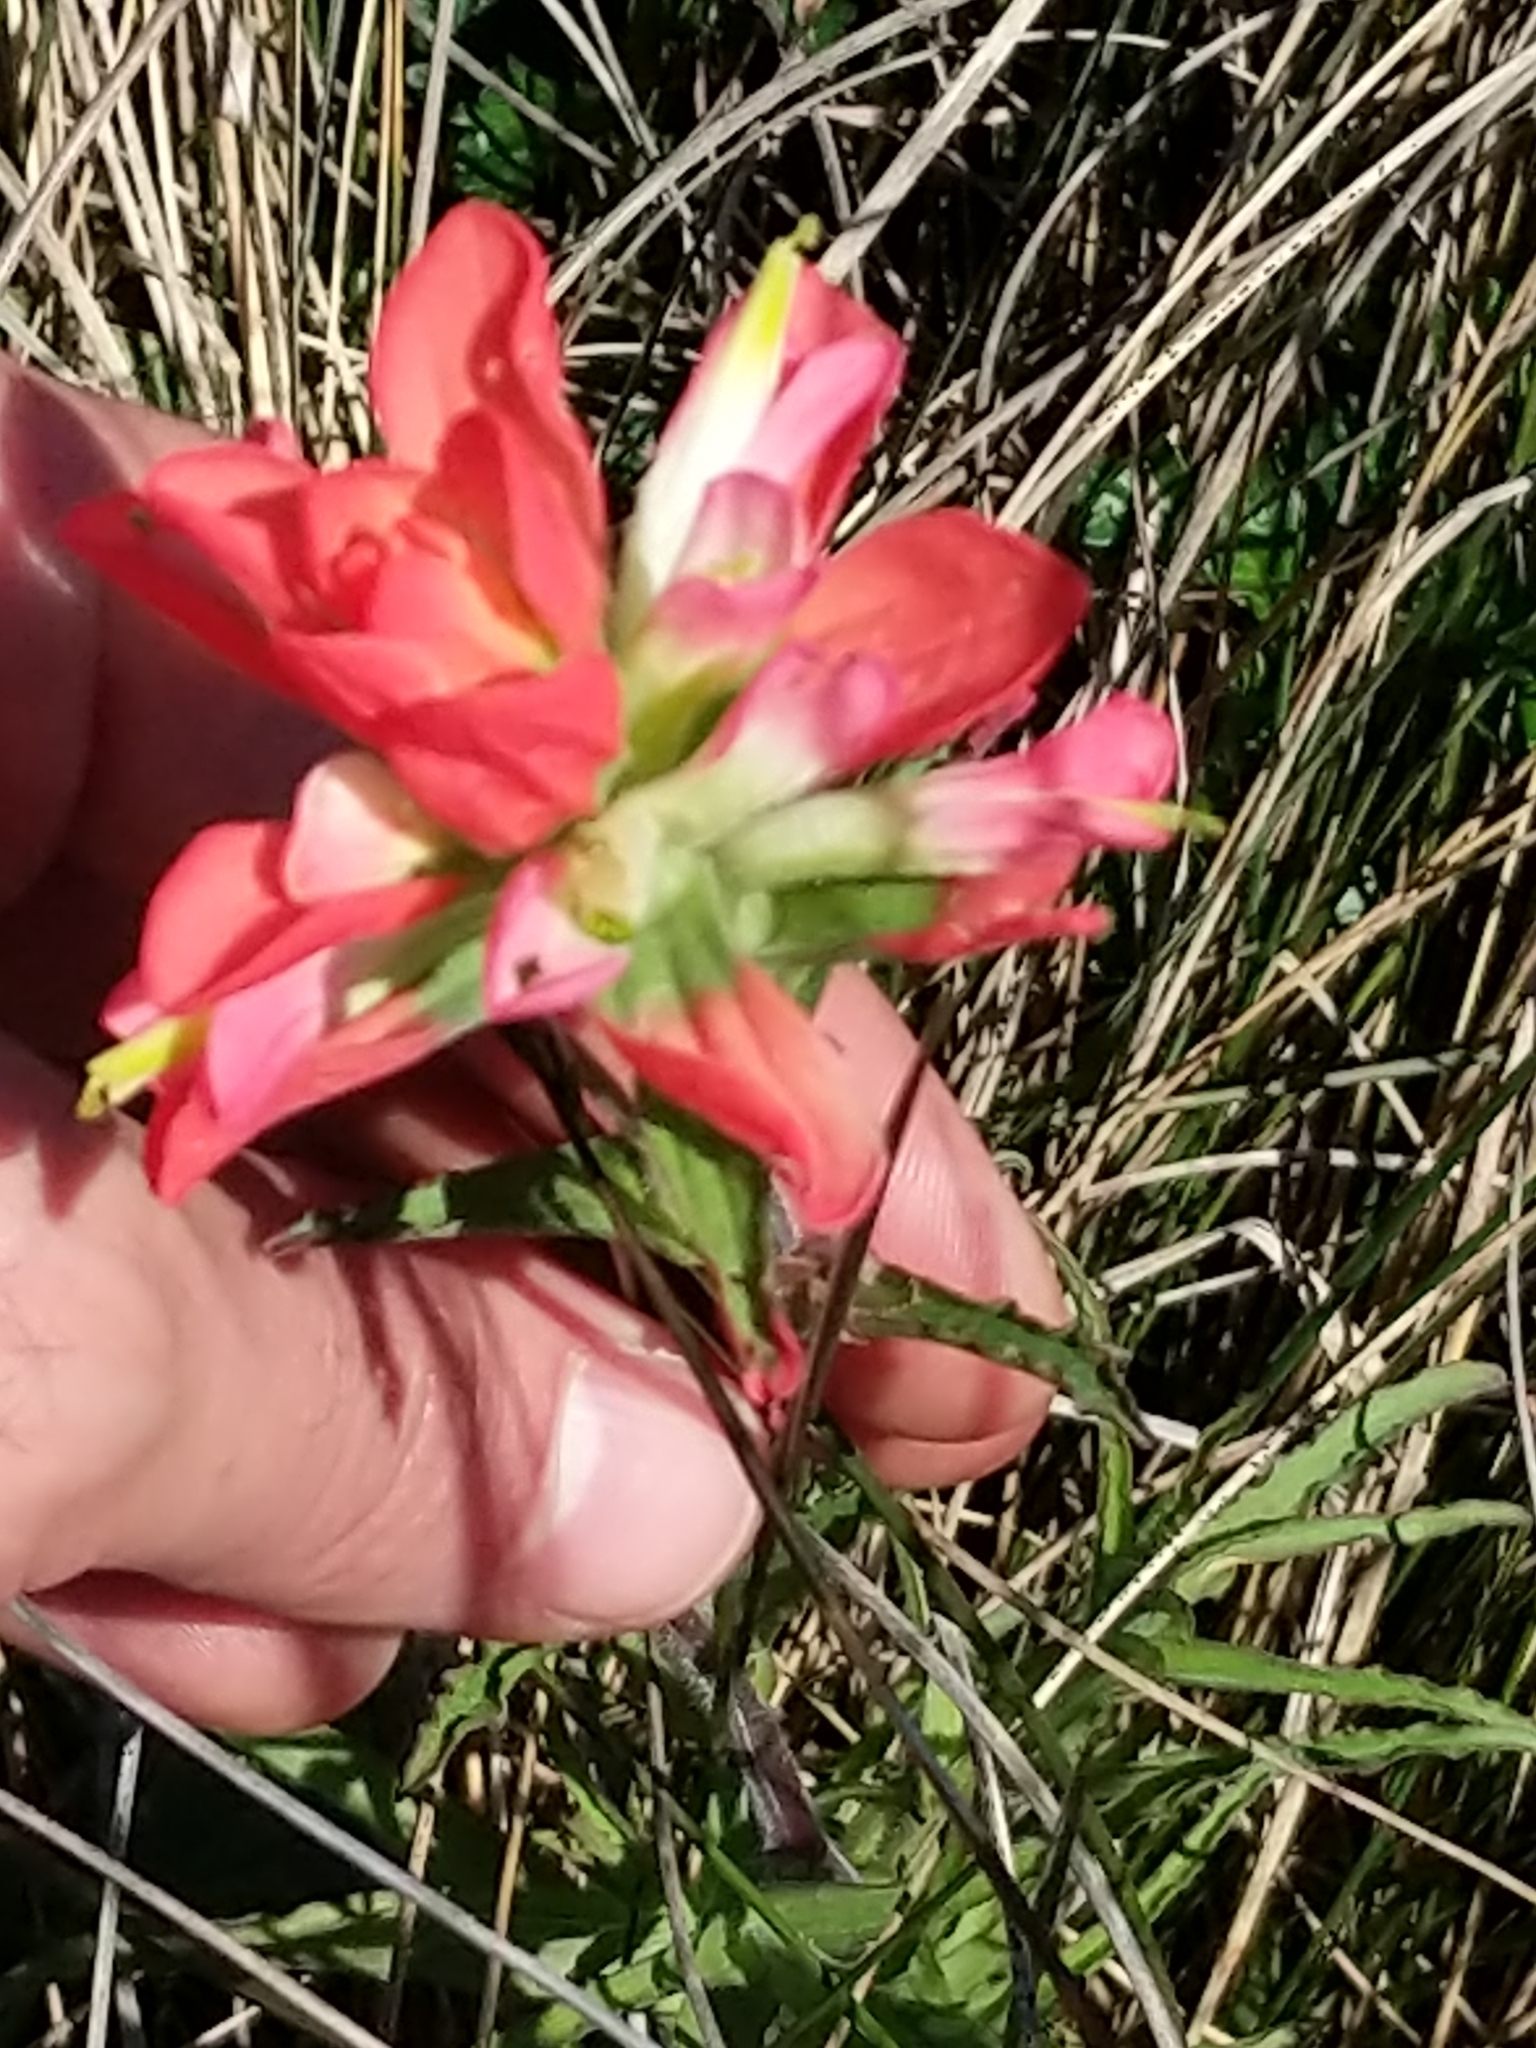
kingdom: Plantae
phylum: Tracheophyta
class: Magnoliopsida
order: Lamiales
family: Orobanchaceae
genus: Castilleja
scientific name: Castilleja indivisa
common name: Texas paintbrush
